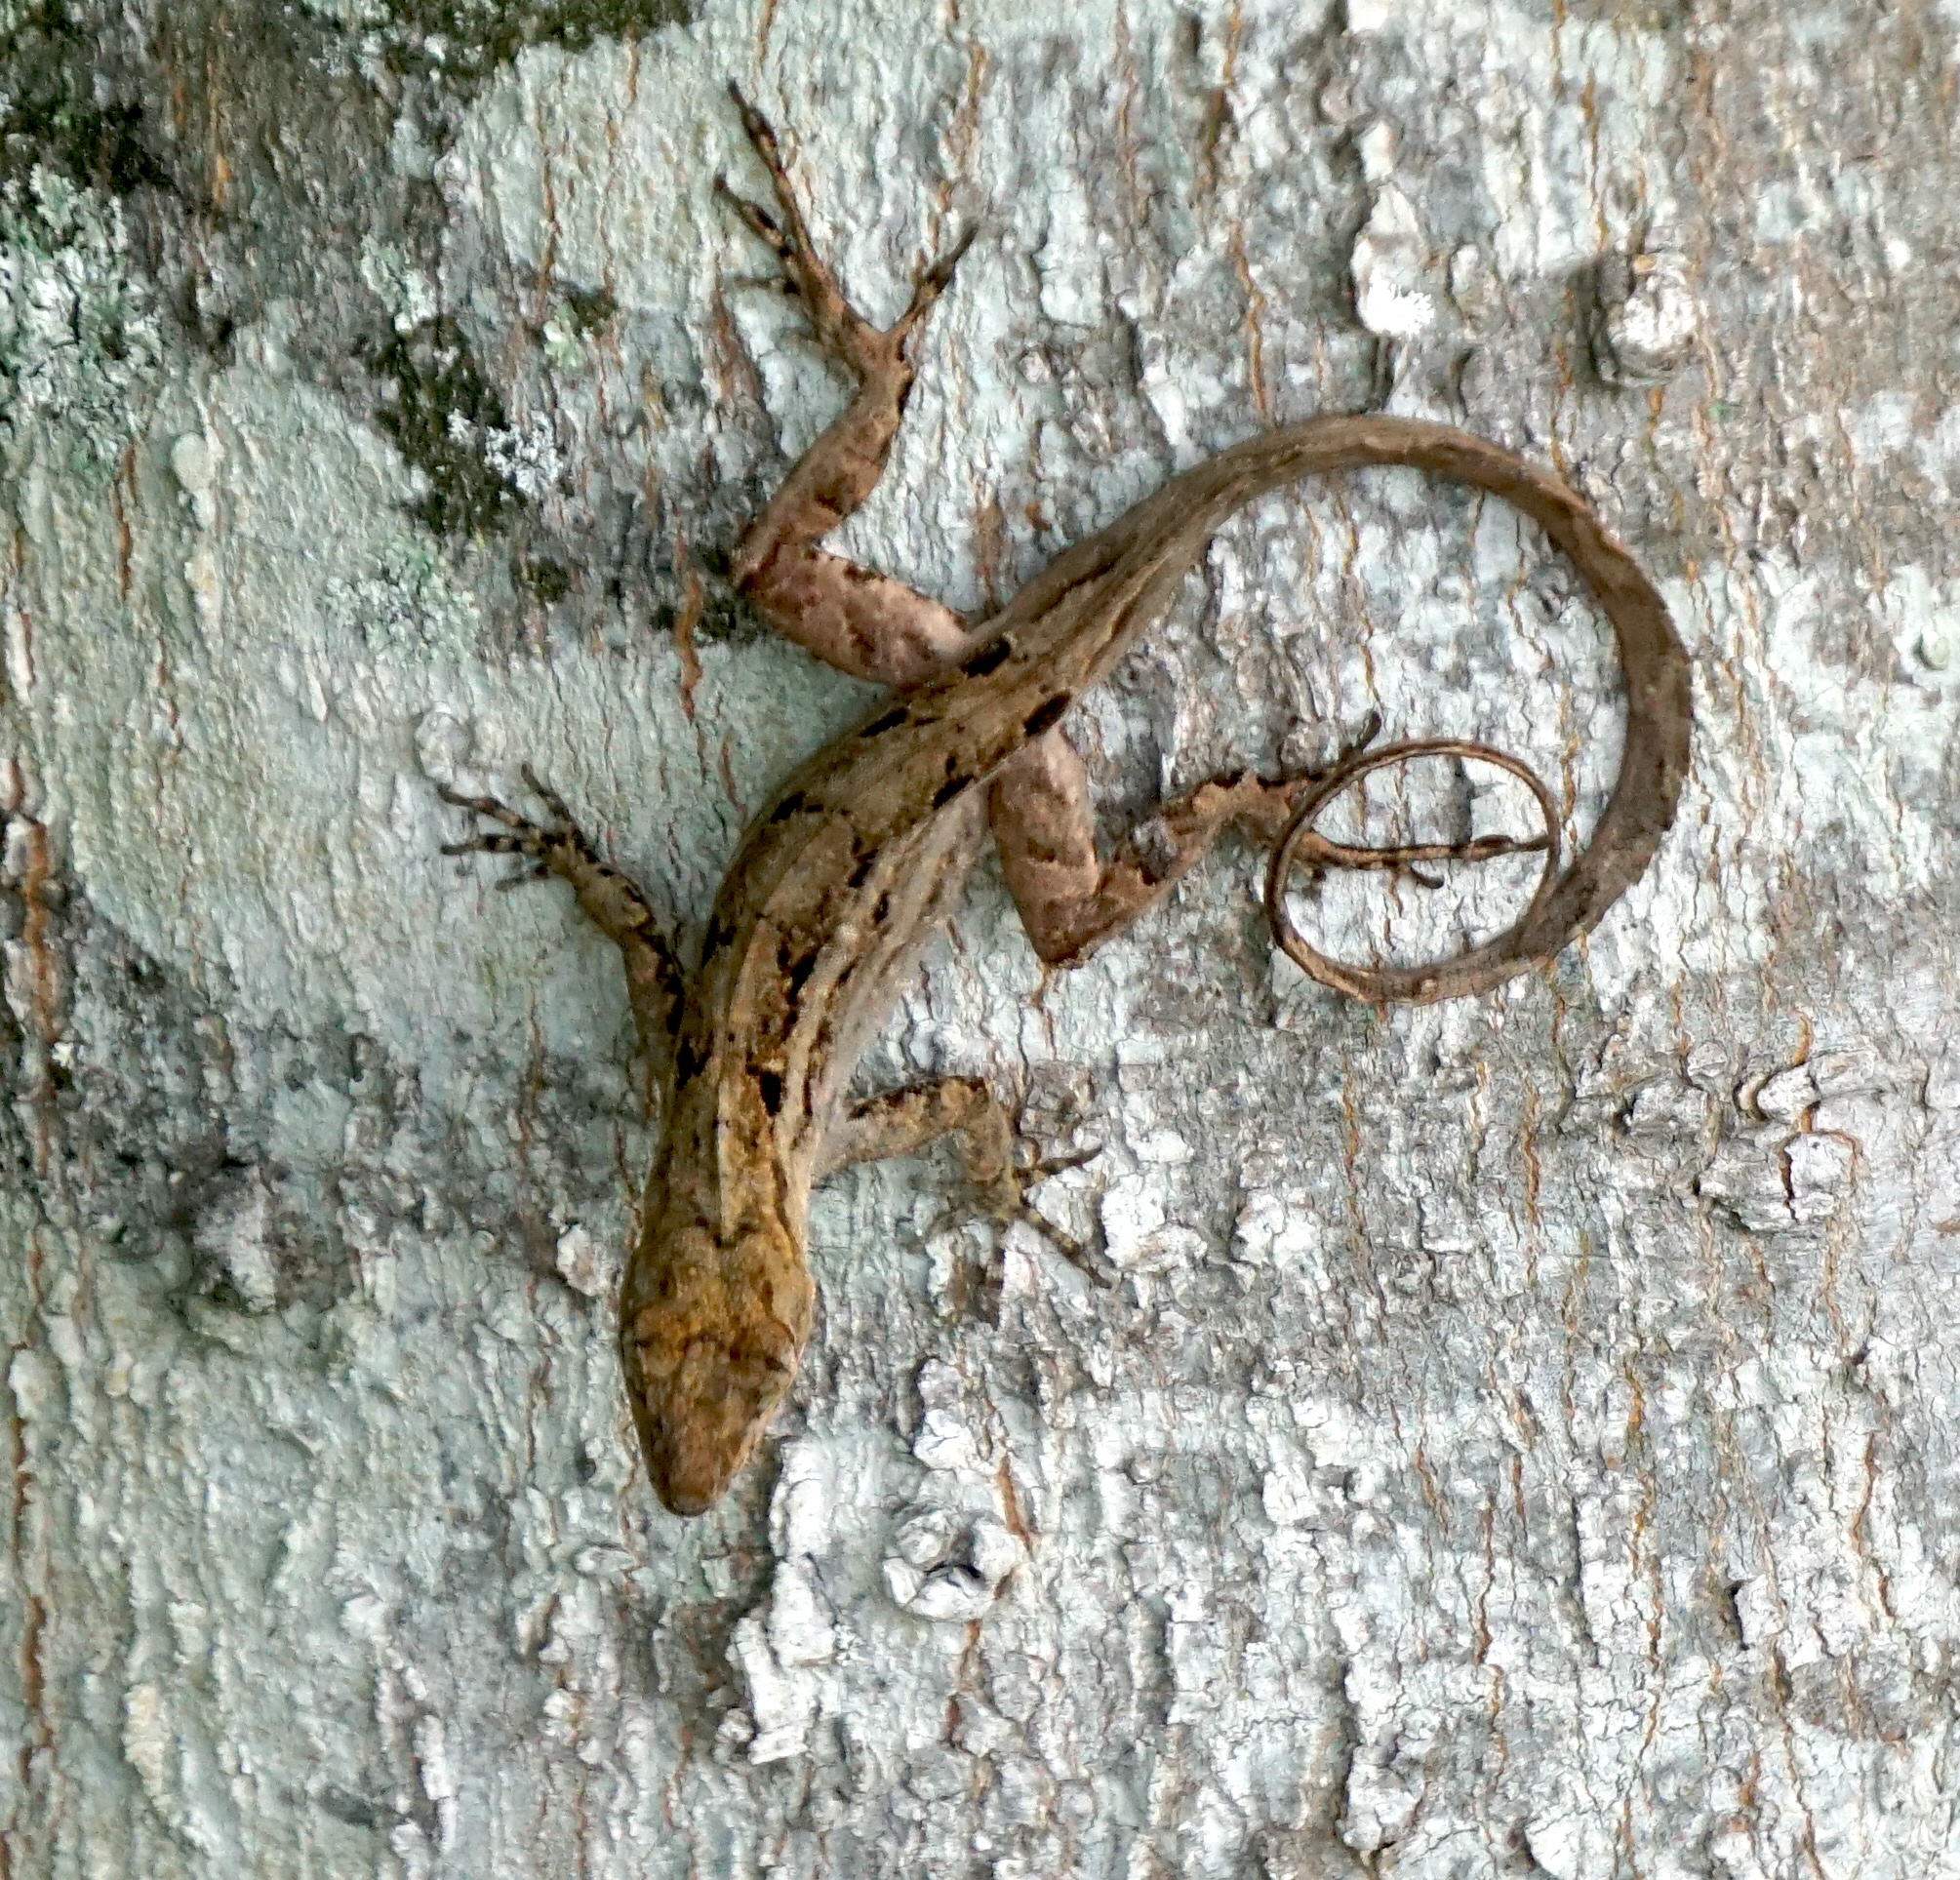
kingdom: Animalia
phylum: Chordata
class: Squamata
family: Dactyloidae
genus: Anolis
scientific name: Anolis sagrei
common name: Brown anole
